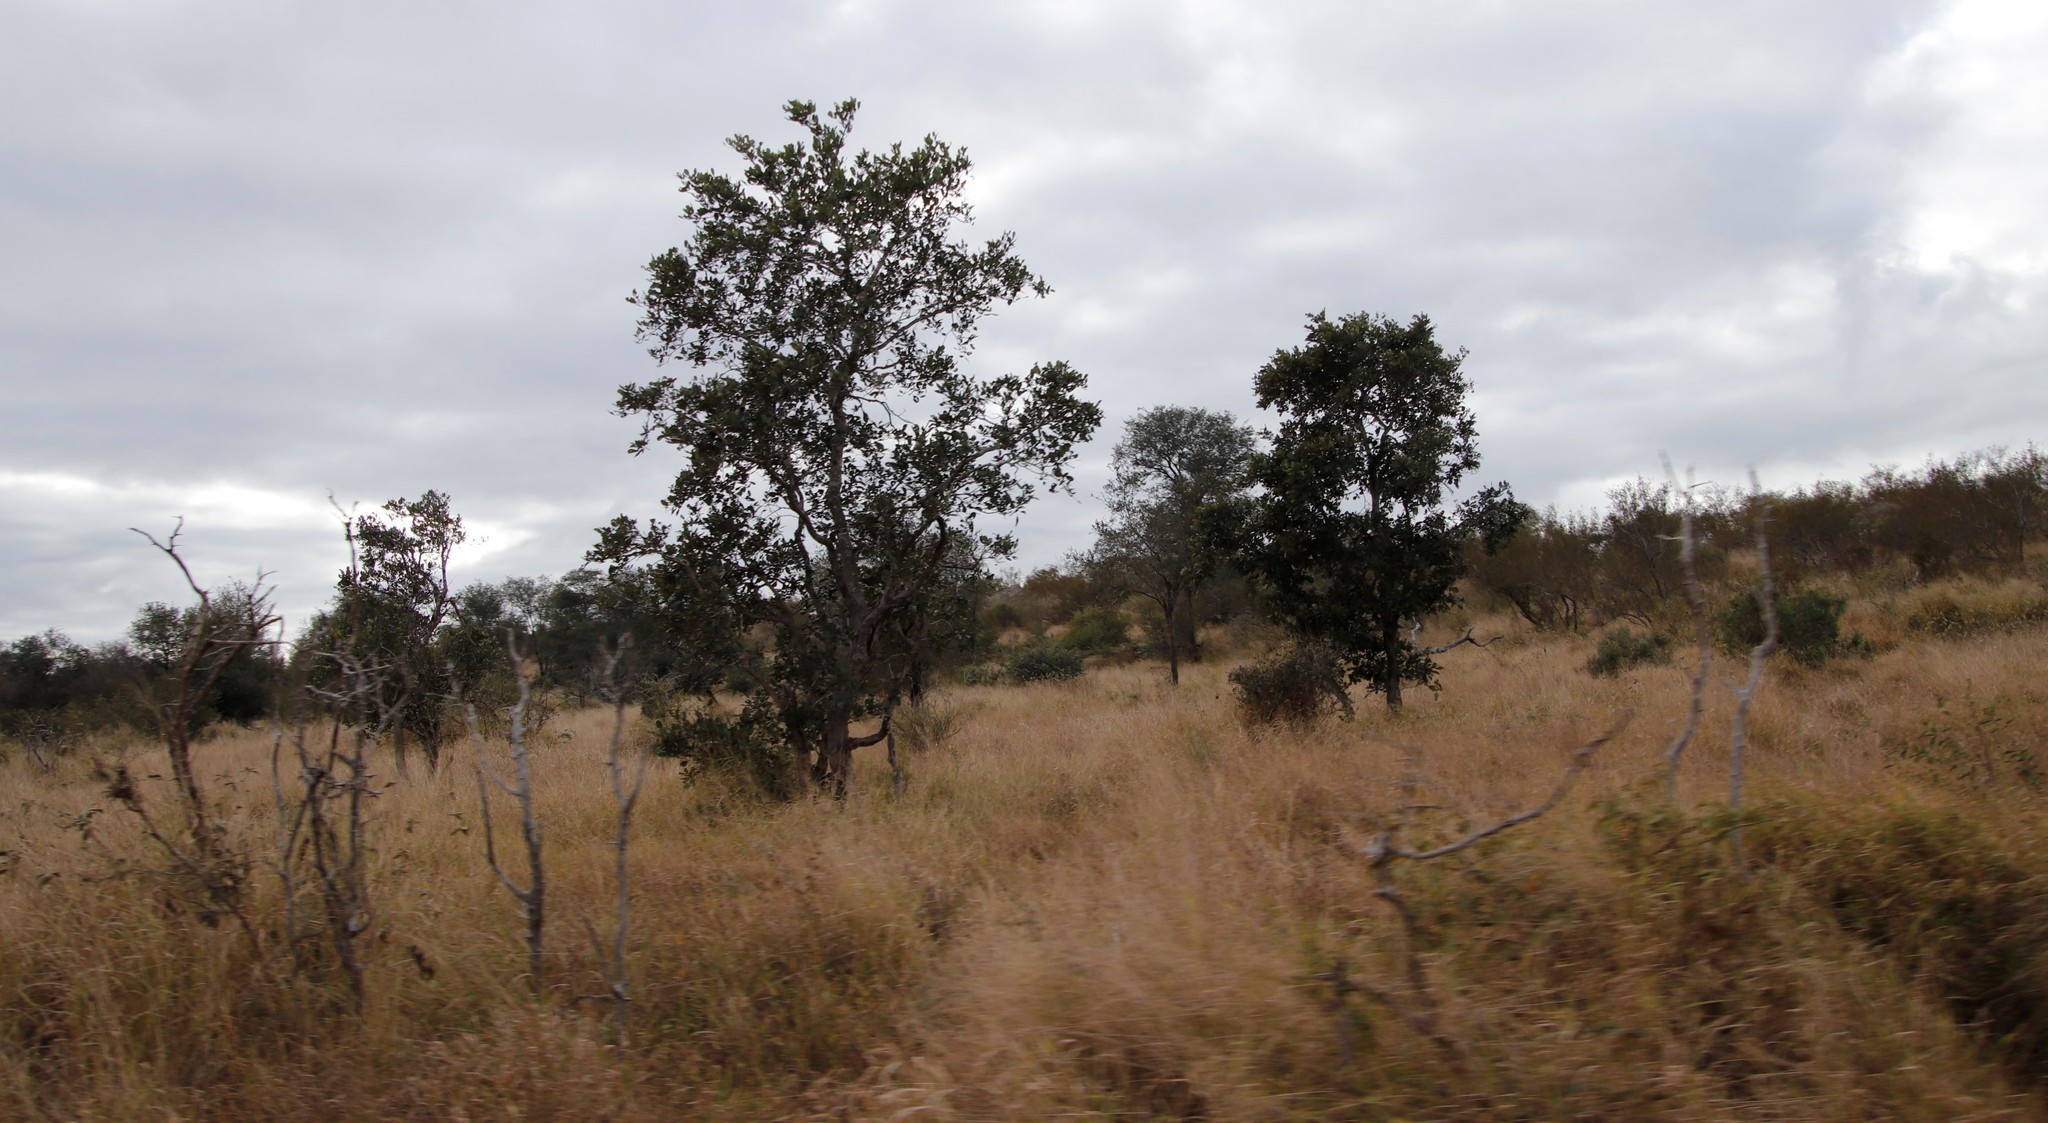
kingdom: Plantae
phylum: Tracheophyta
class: Magnoliopsida
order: Fabales
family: Fabaceae
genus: Philenoptera
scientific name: Philenoptera violacea
